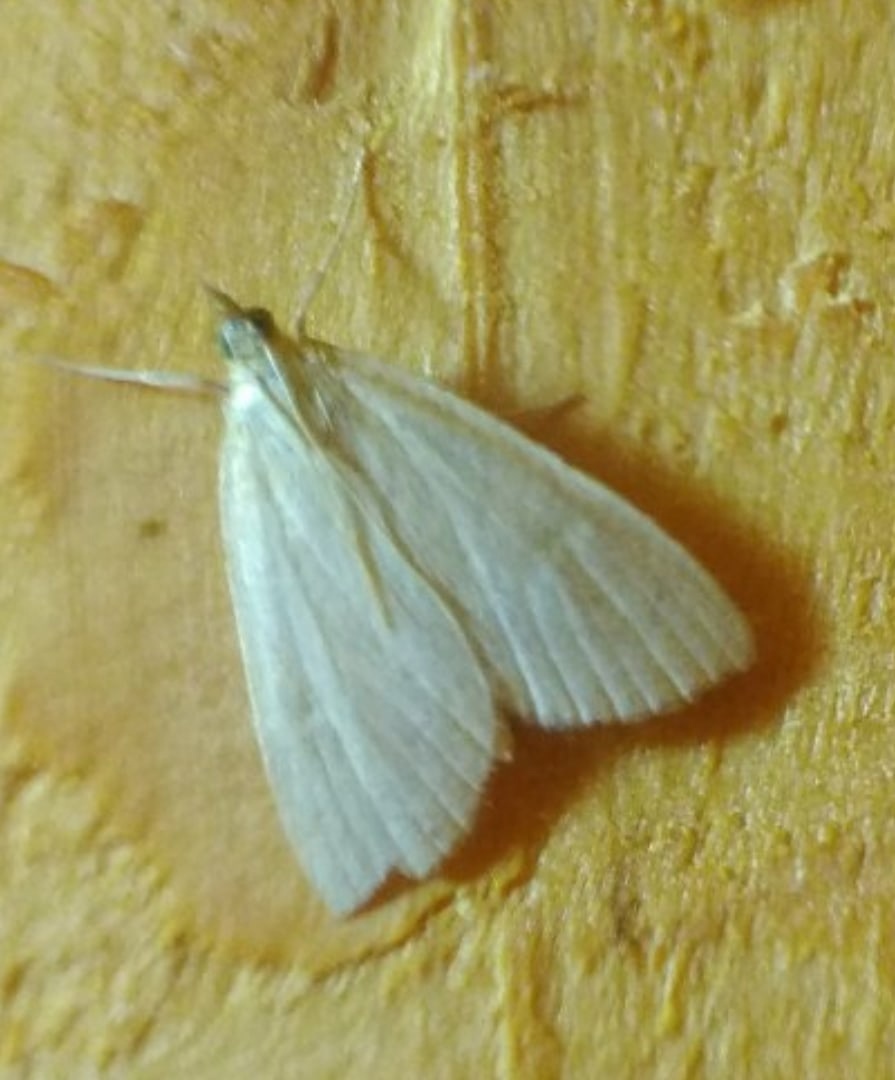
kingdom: Animalia
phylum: Arthropoda
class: Insecta
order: Lepidoptera
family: Crambidae
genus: Udea
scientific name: Udea lutealis
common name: Pale straw pearl
